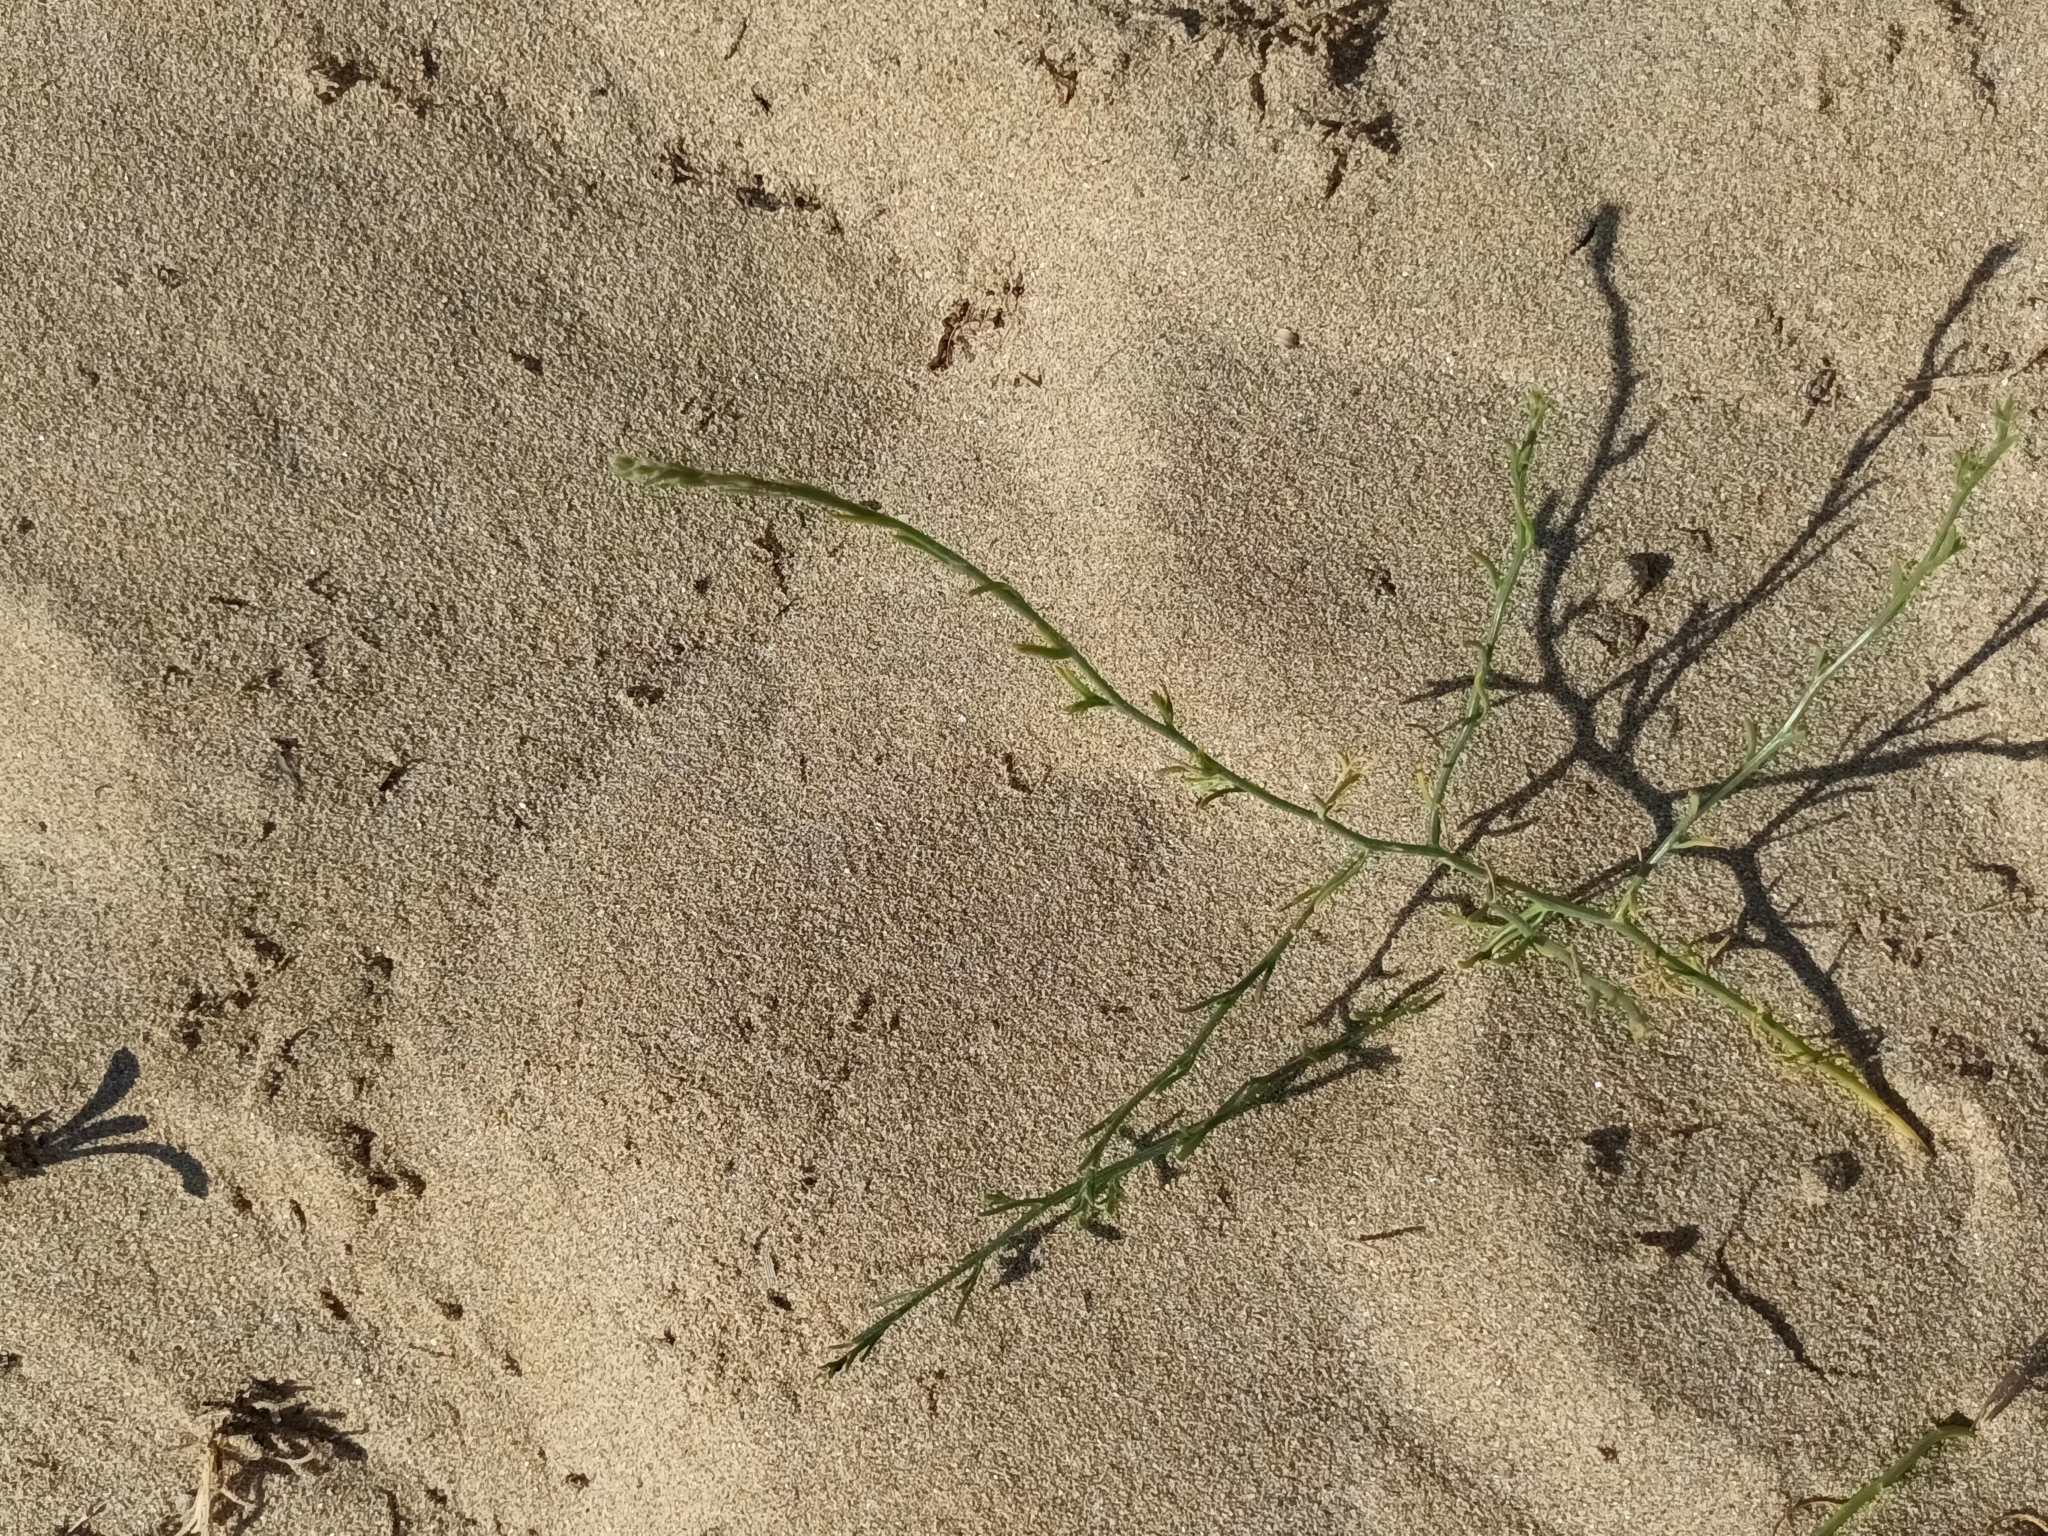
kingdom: Plantae
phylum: Tracheophyta
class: Magnoliopsida
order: Caryophyllales
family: Amaranthaceae
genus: Corispermum
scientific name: Corispermum nitidum
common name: Bugseed
